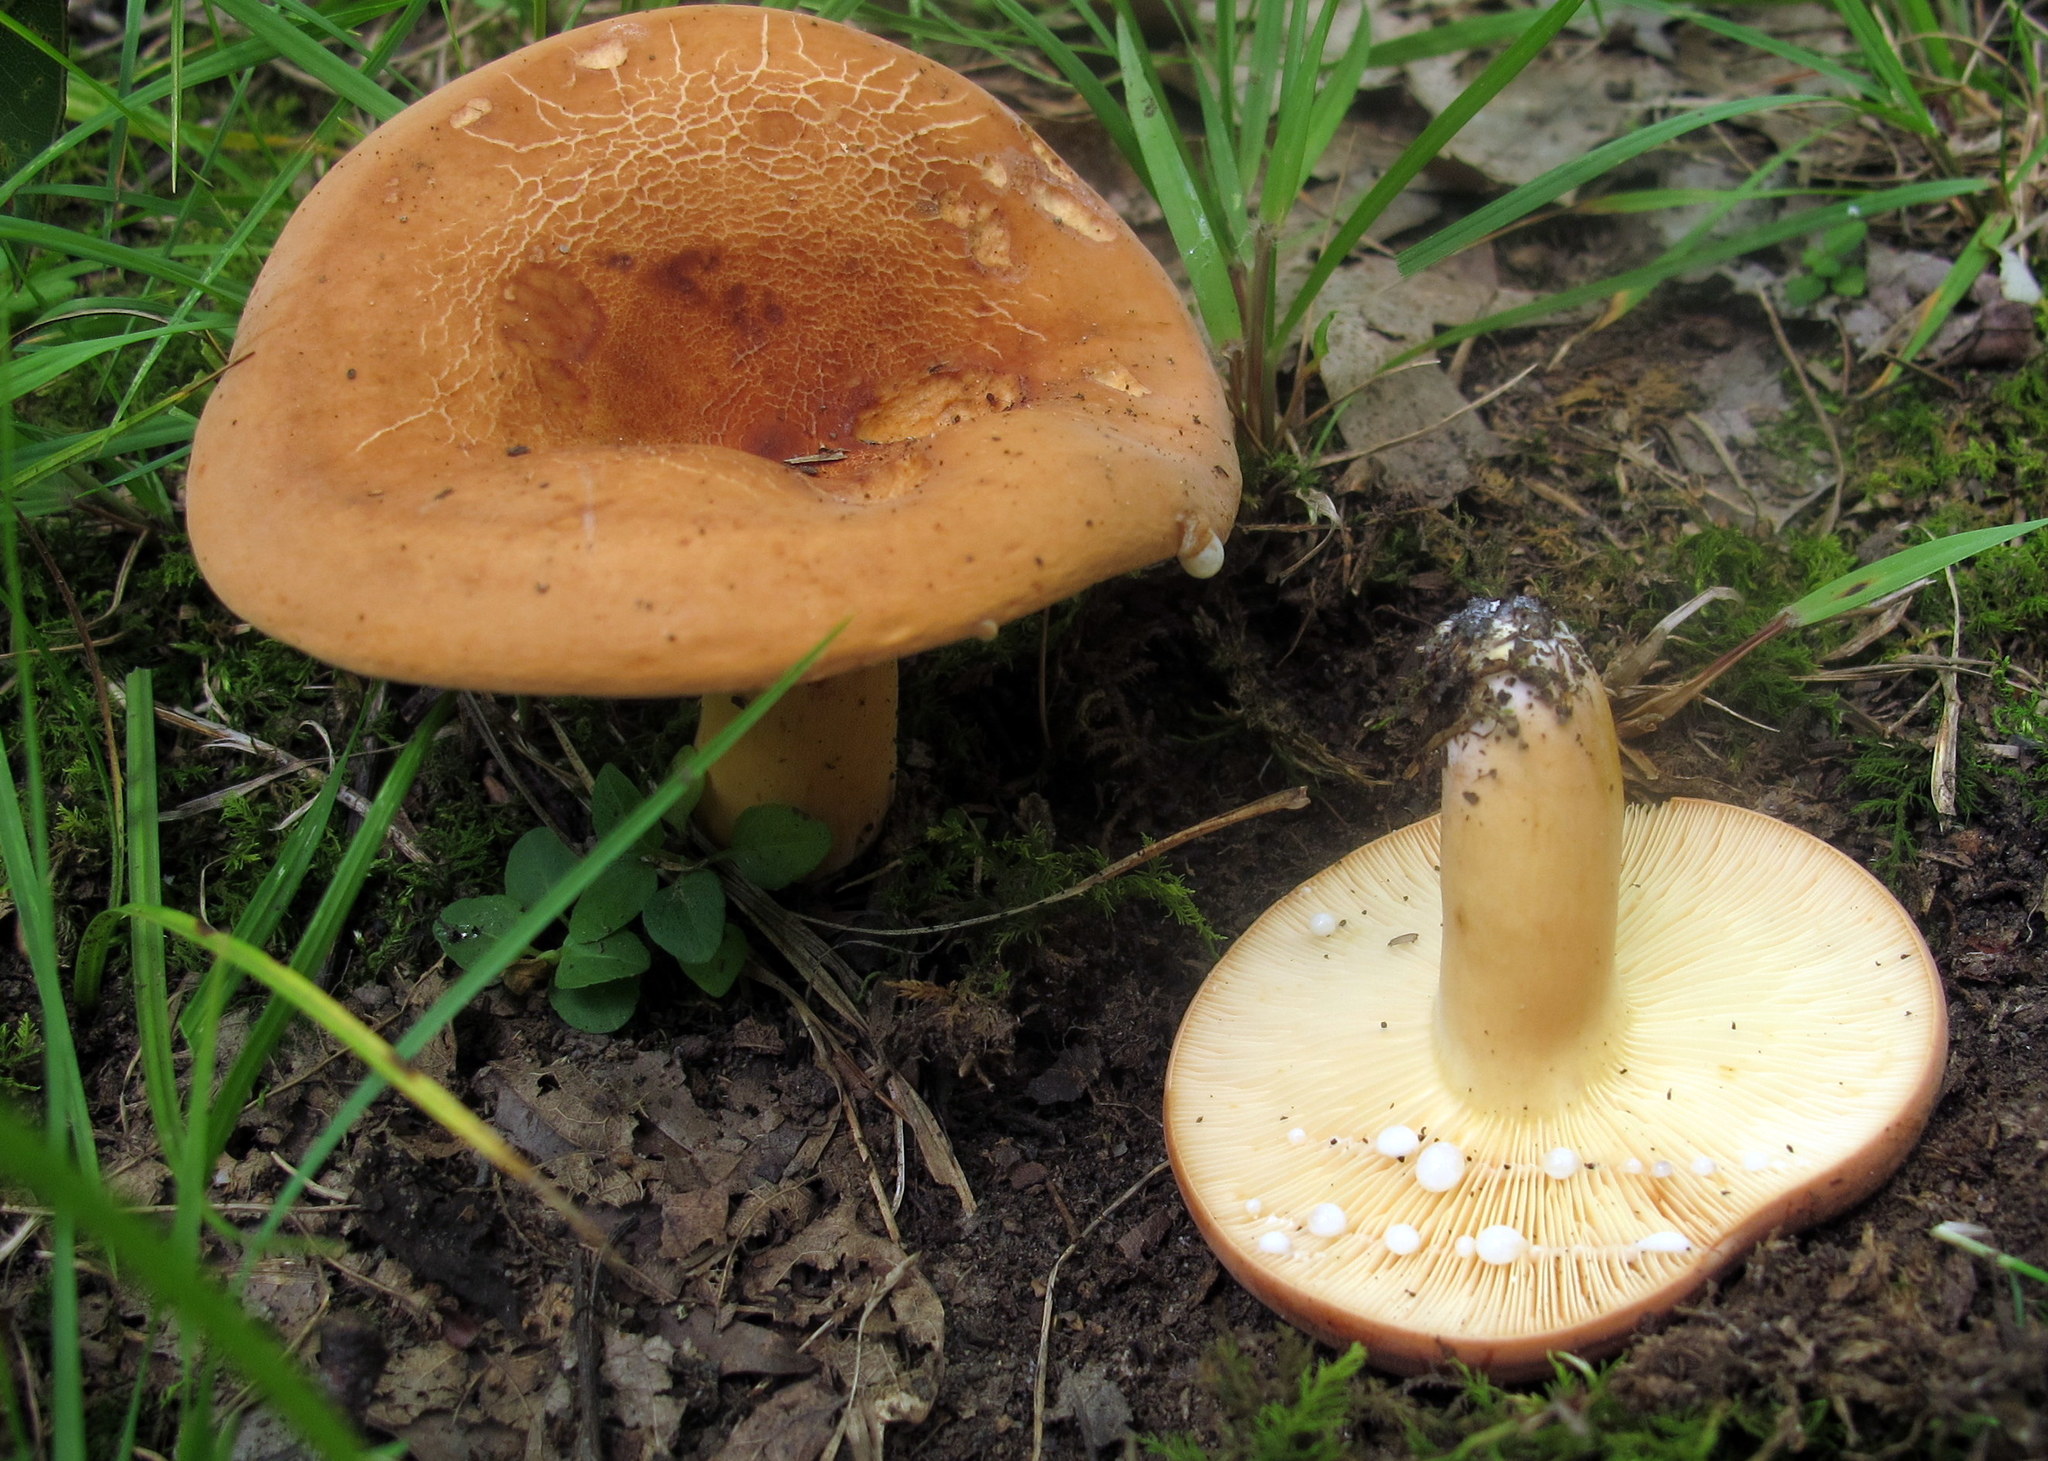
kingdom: Fungi
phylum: Basidiomycota
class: Agaricomycetes
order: Russulales
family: Russulaceae
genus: Lactifluus
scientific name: Lactifluus volemus
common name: Fishy milkcap
